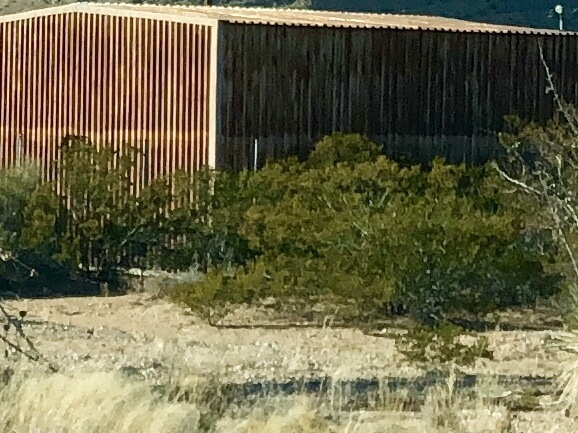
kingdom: Plantae
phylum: Tracheophyta
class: Magnoliopsida
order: Zygophyllales
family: Zygophyllaceae
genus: Larrea
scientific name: Larrea tridentata
